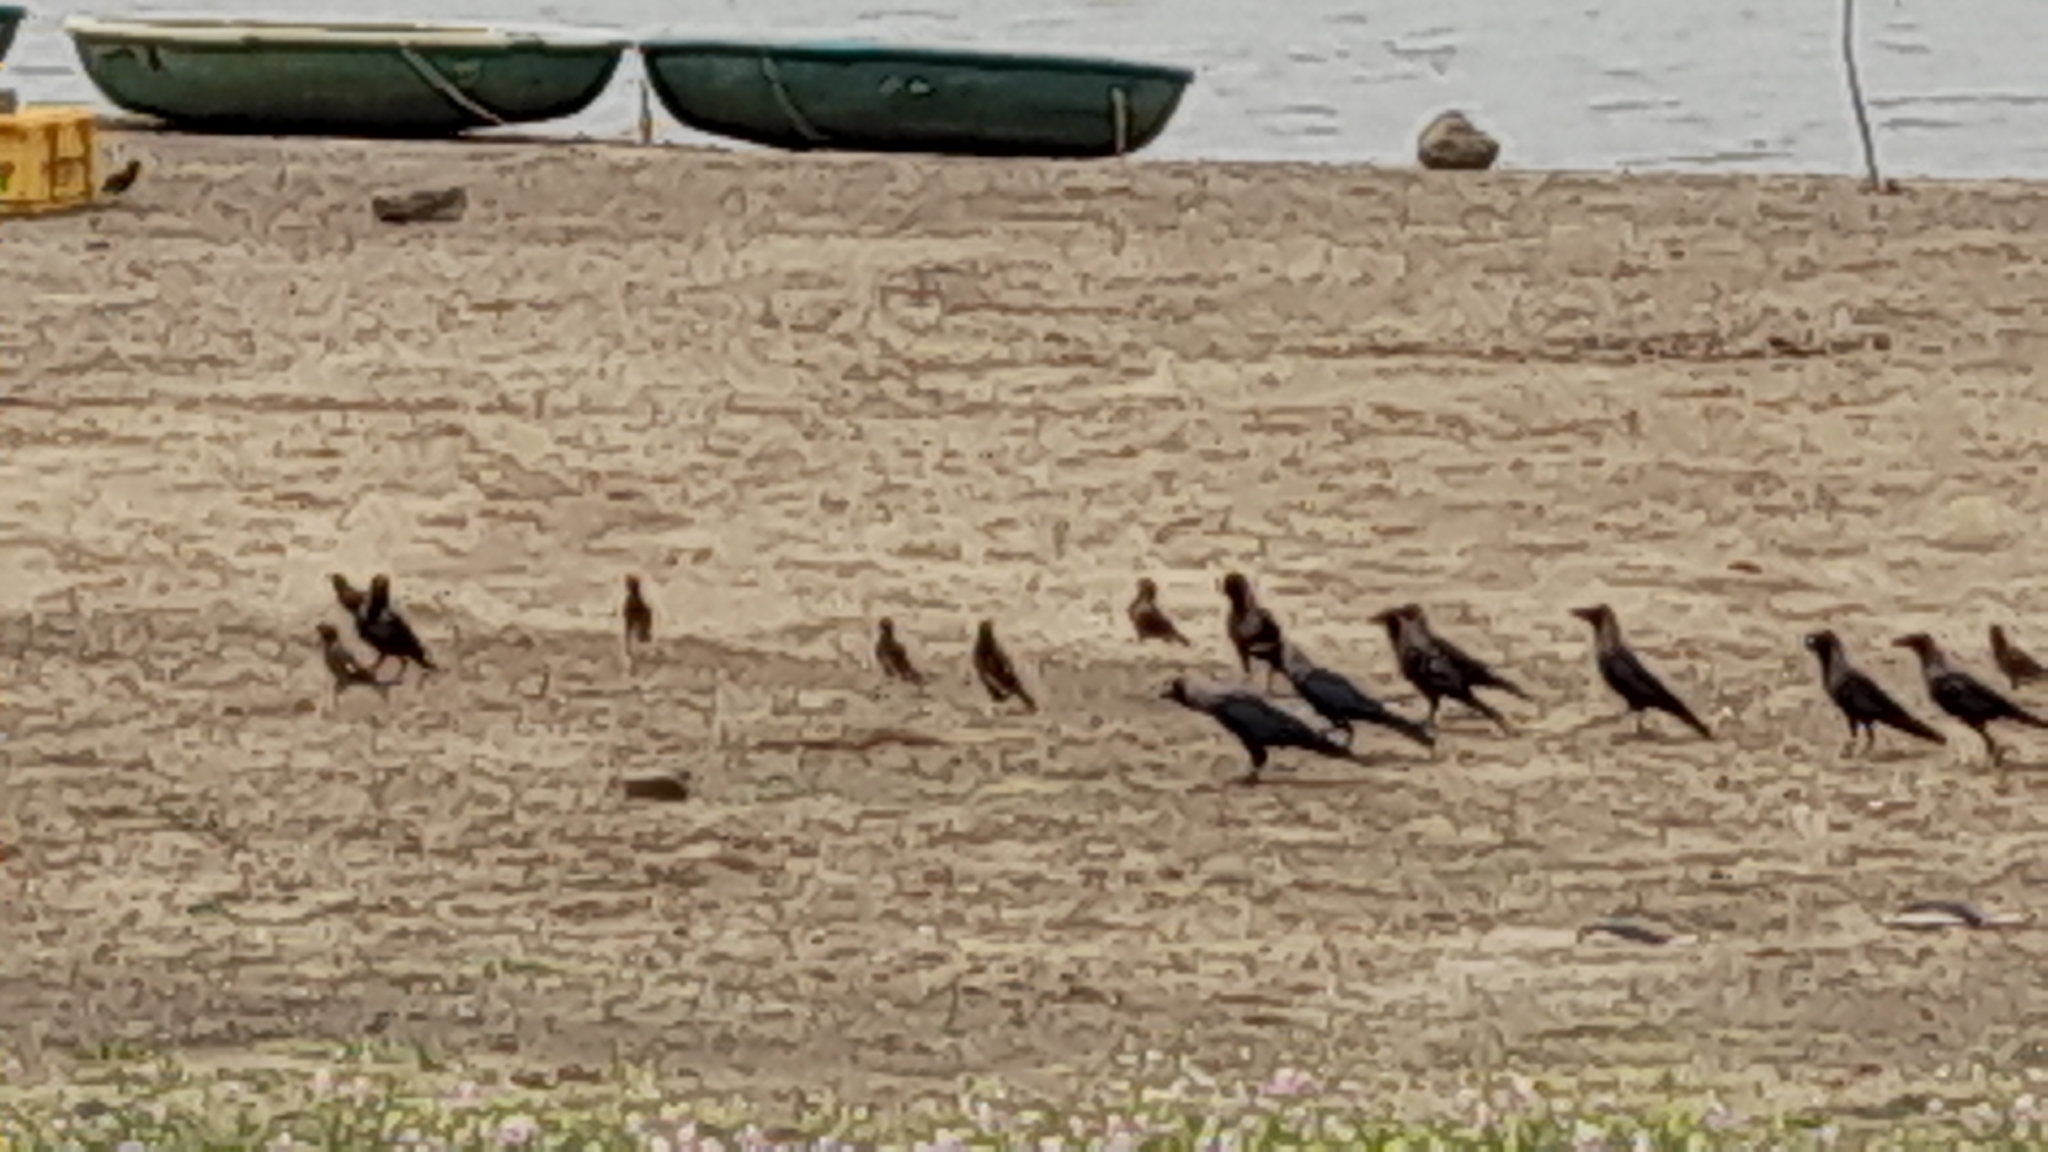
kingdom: Animalia
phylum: Chordata
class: Aves
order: Passeriformes
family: Sturnidae
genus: Acridotheres
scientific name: Acridotheres tristis
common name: Common myna
